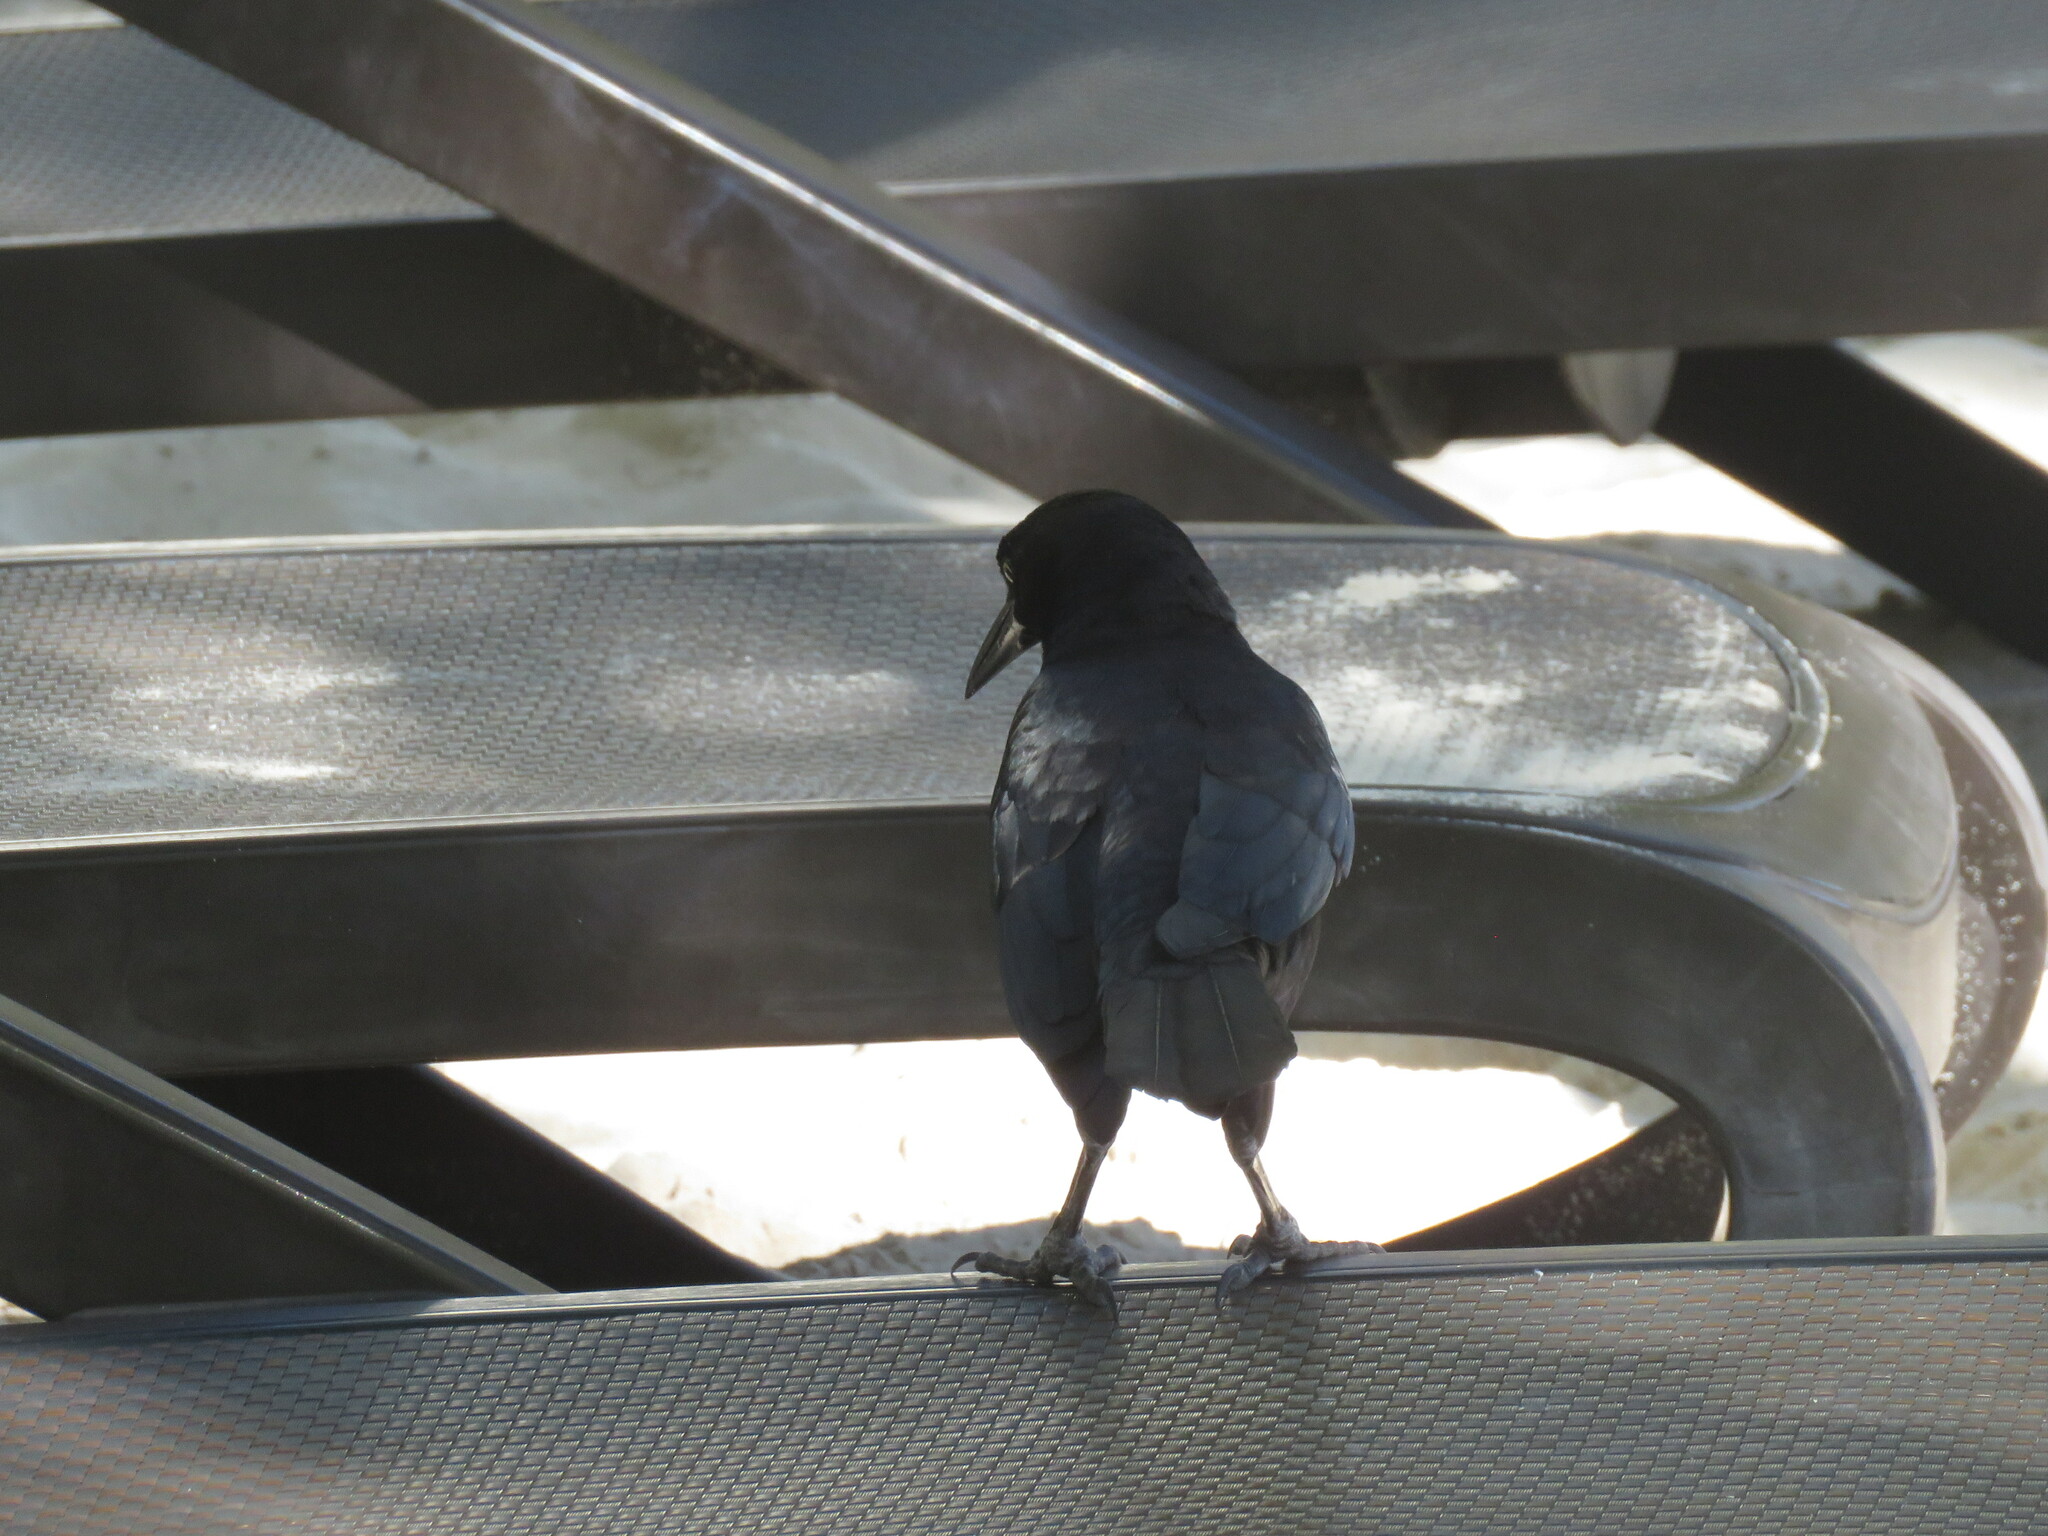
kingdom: Animalia
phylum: Chordata
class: Aves
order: Passeriformes
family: Icteridae
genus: Quiscalus
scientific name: Quiscalus mexicanus
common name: Great-tailed grackle
